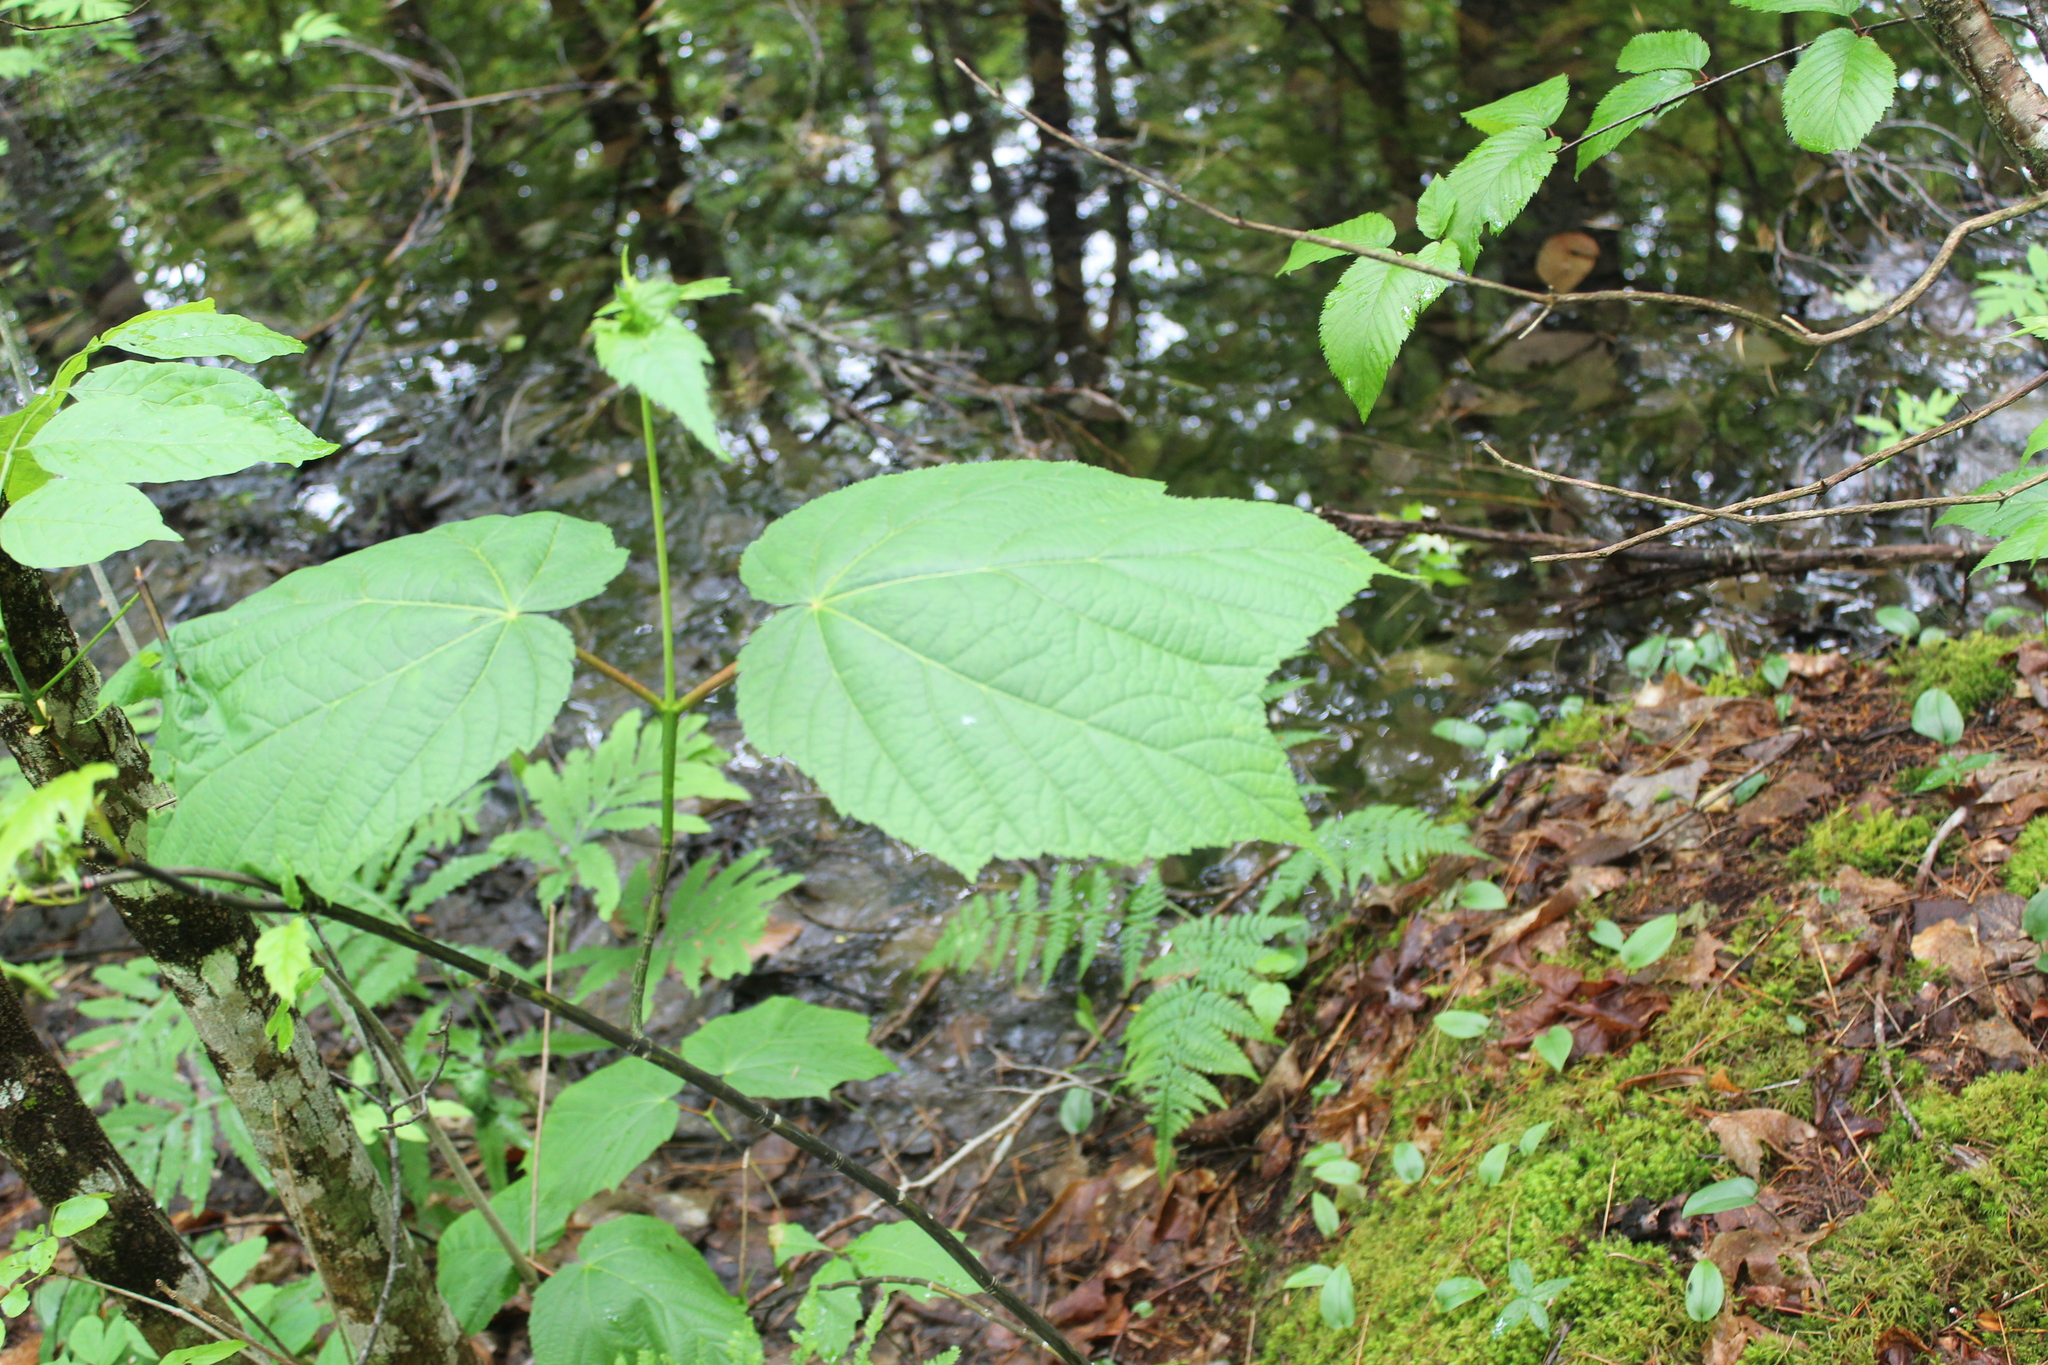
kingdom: Plantae
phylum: Tracheophyta
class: Magnoliopsida
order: Sapindales
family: Sapindaceae
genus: Acer
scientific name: Acer pensylvanicum
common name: Moosewood
